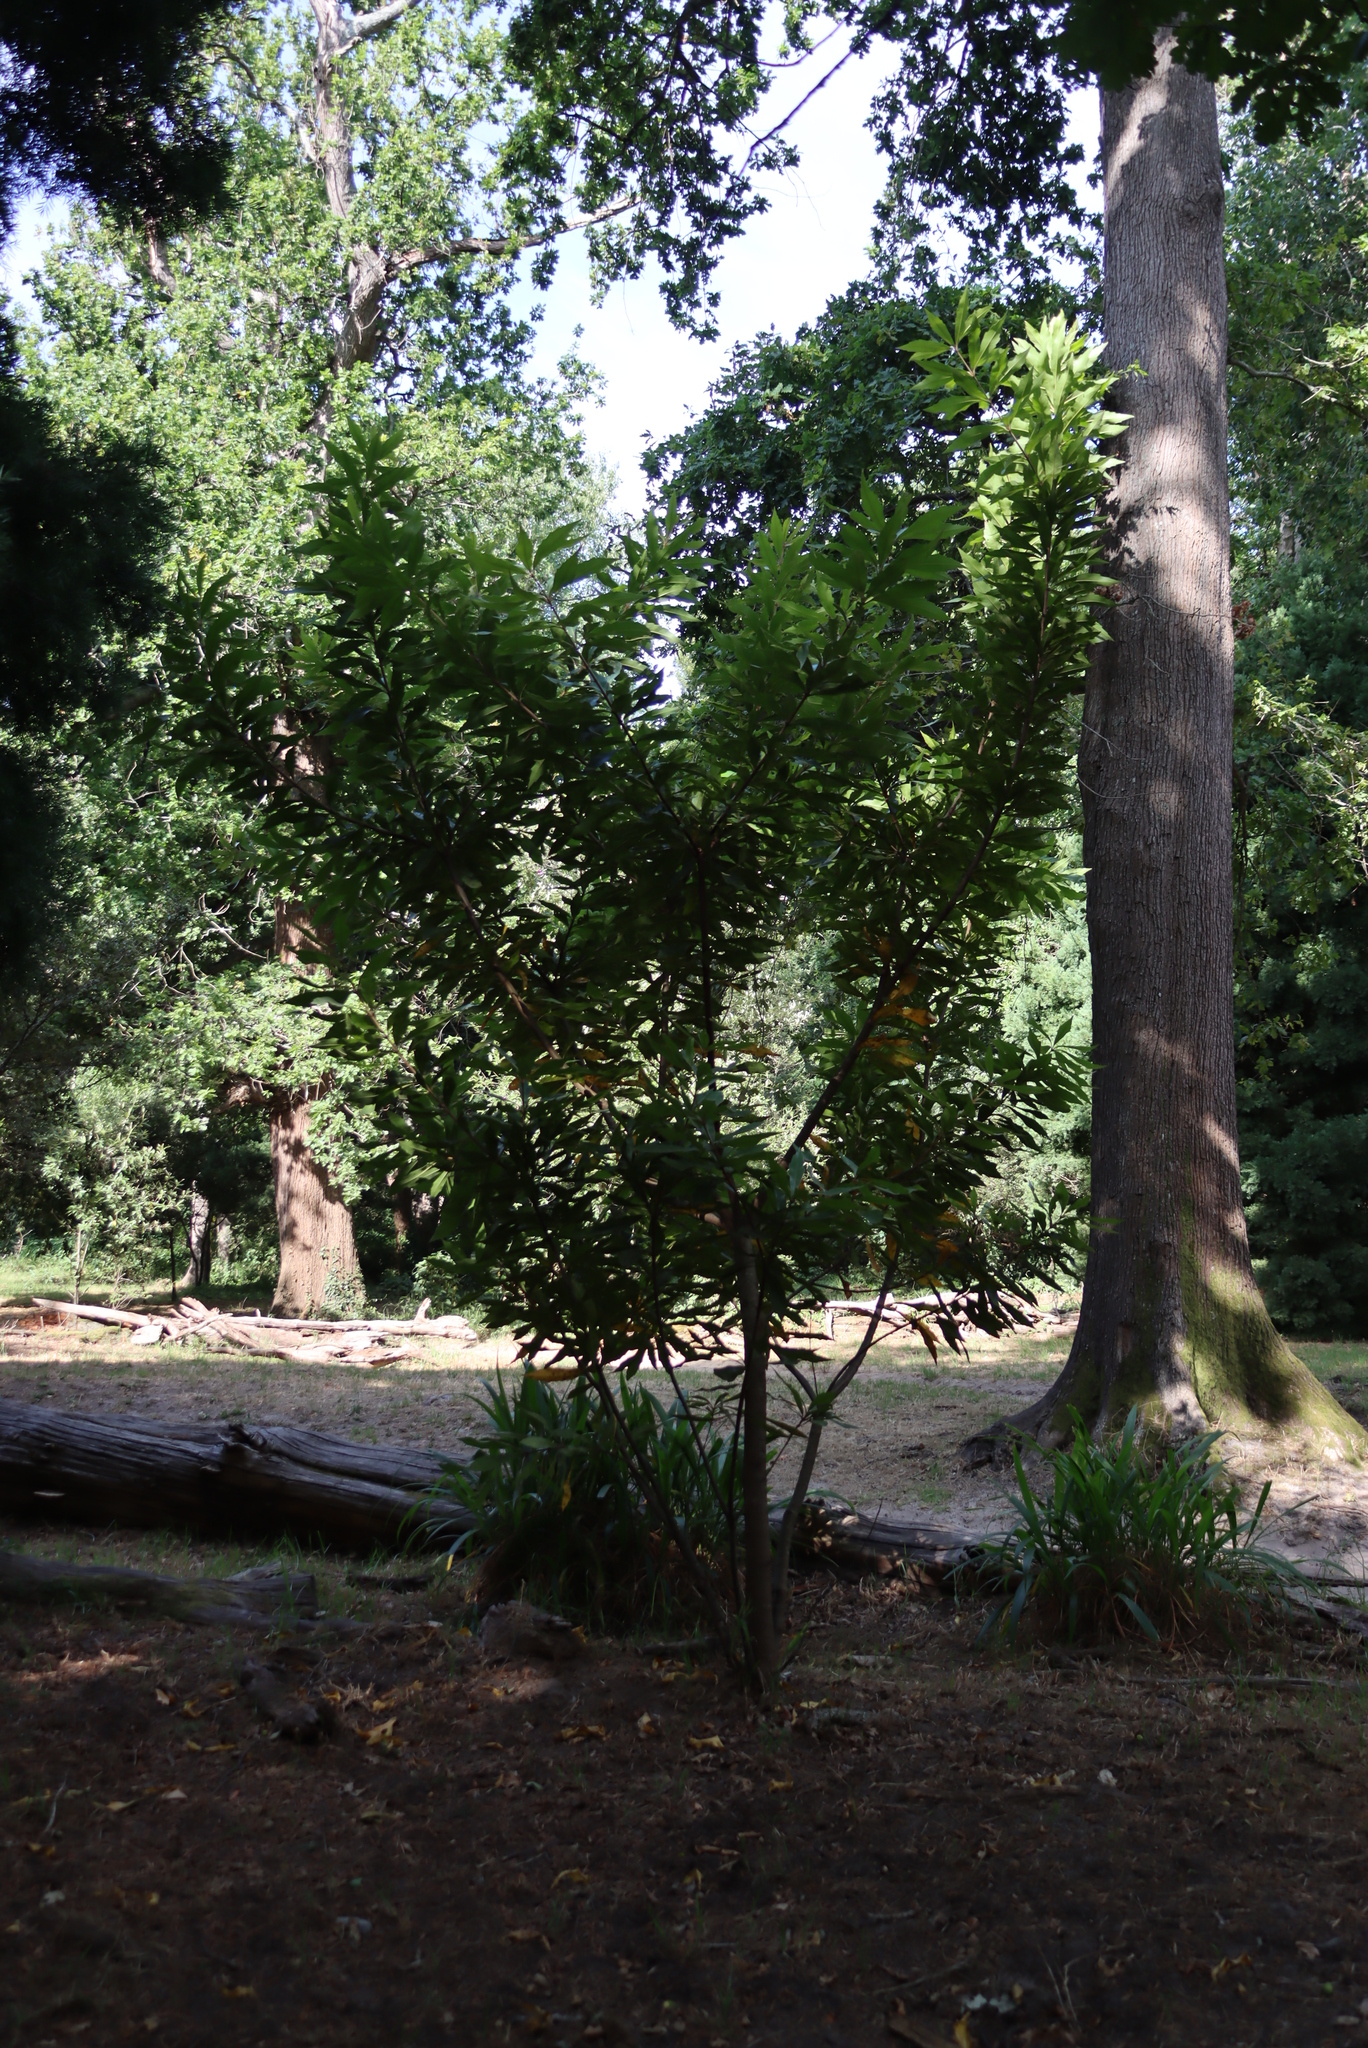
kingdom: Plantae
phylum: Tracheophyta
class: Magnoliopsida
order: Proteales
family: Proteaceae
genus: Brabejum
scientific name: Brabejum stellatifolium
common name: Wild almond
